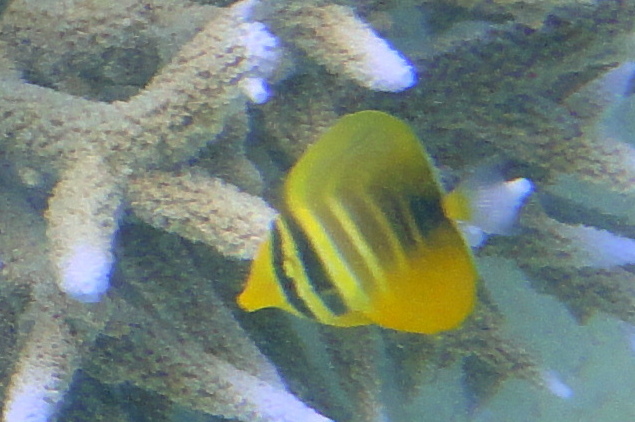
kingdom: Animalia
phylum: Chordata
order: Perciformes
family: Acanthuridae
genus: Zebrasoma
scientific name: Zebrasoma veliferum
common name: Sailfin surgeonfish
